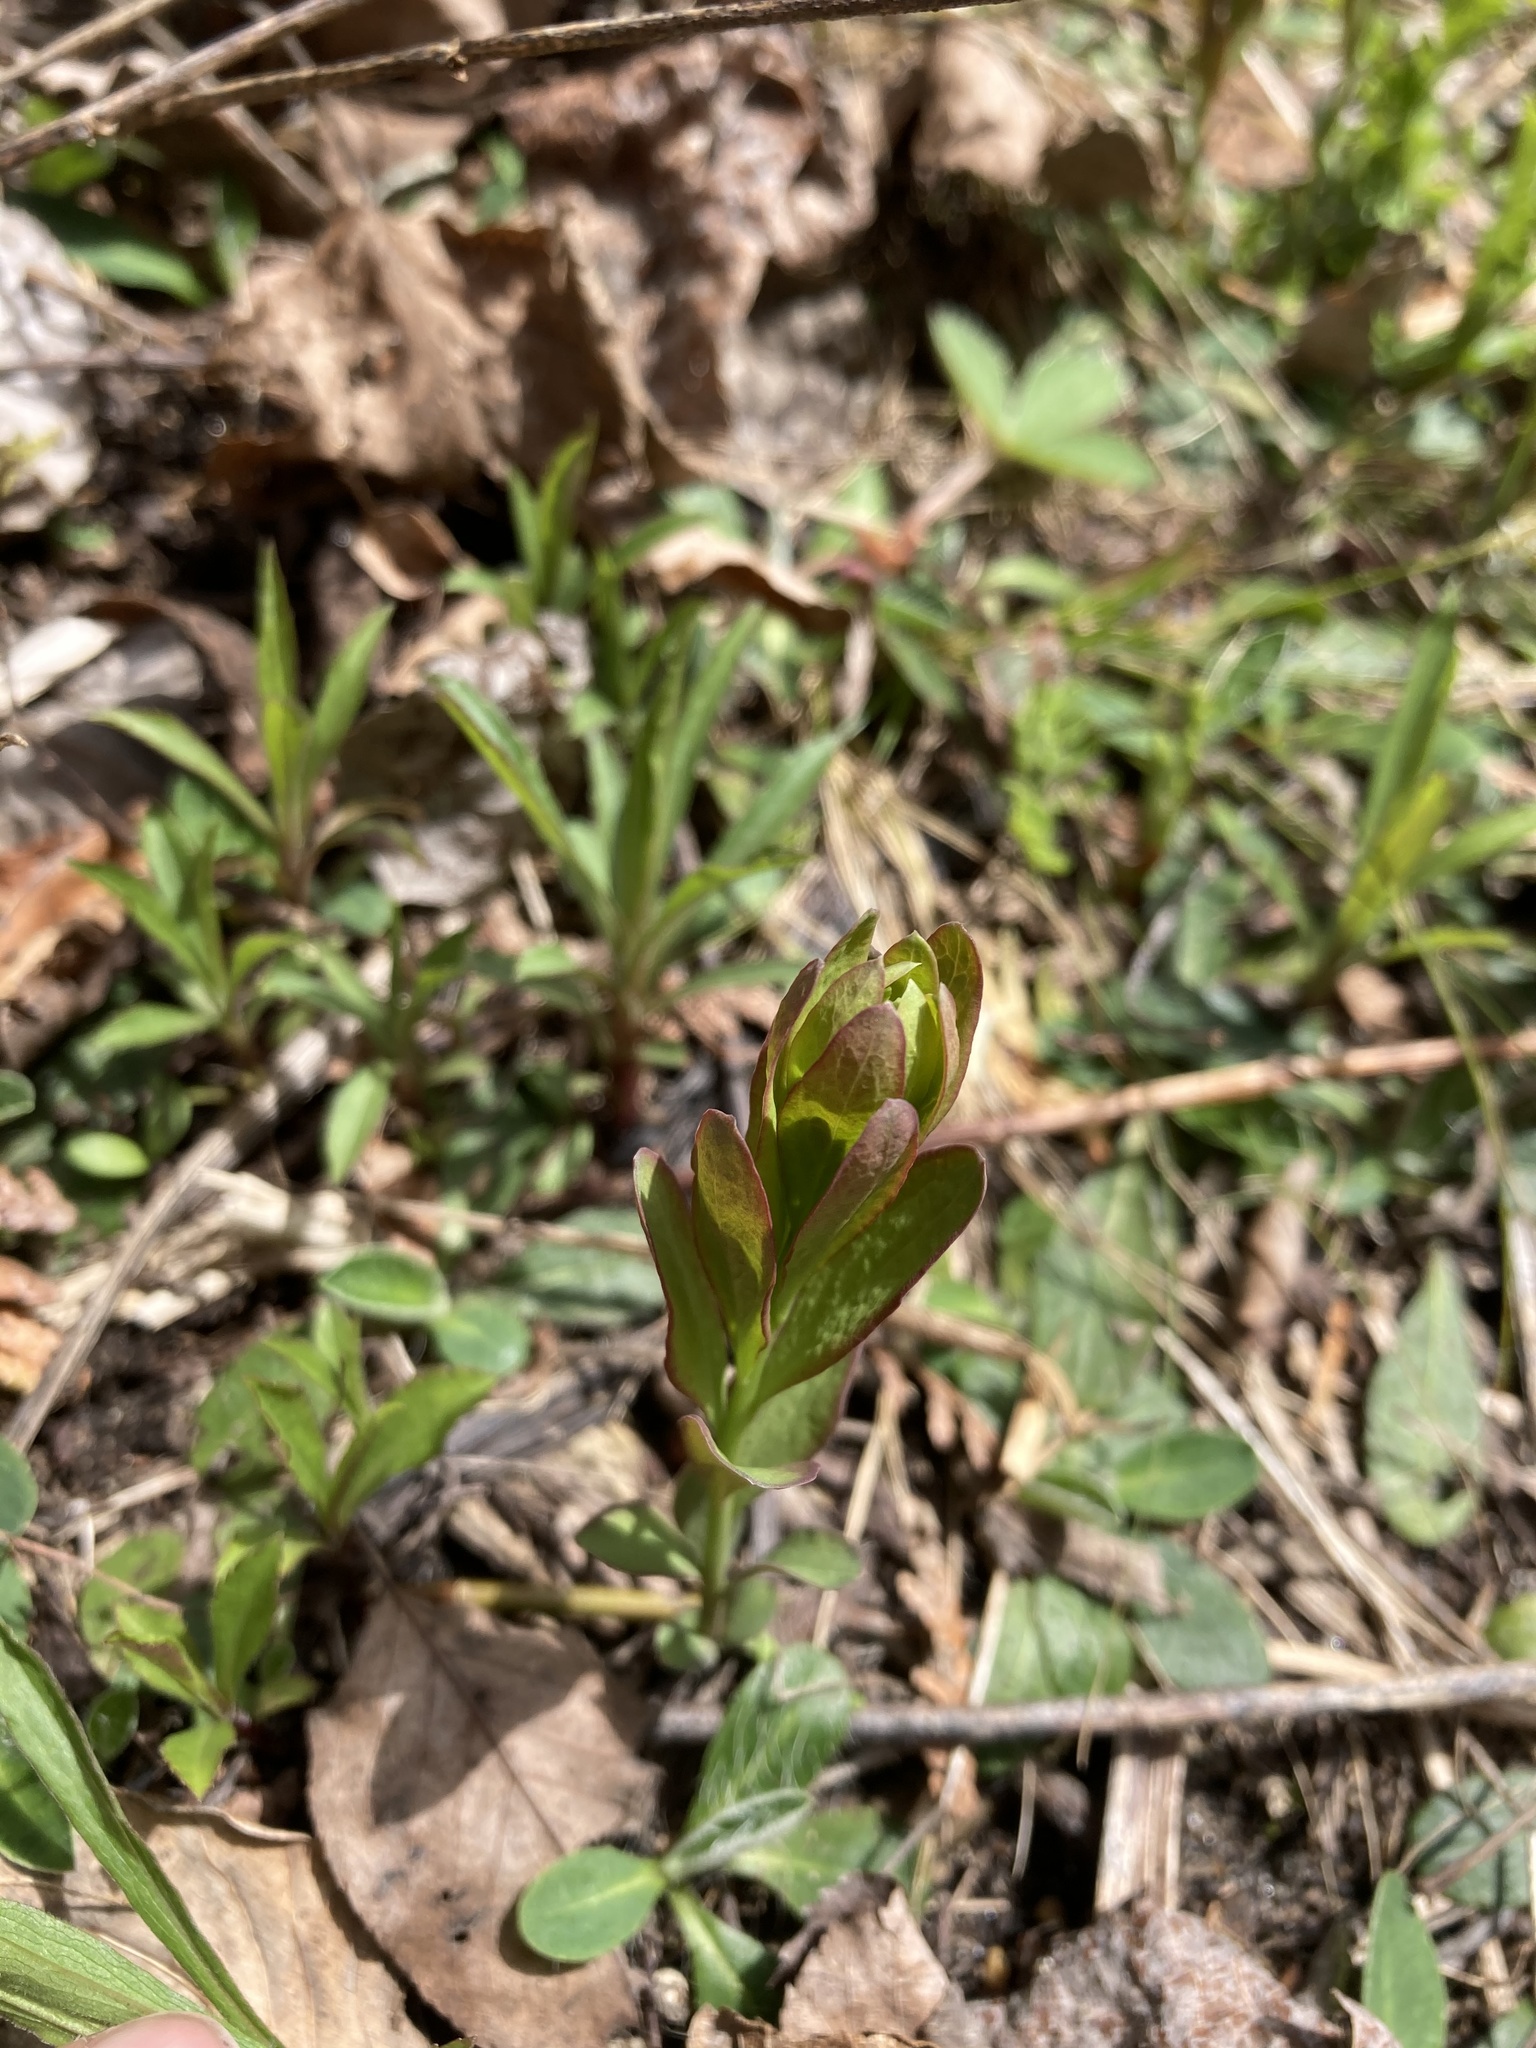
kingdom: Plantae
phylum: Tracheophyta
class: Magnoliopsida
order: Santalales
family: Comandraceae
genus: Comandra
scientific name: Comandra umbellata
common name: Bastard toadflax
